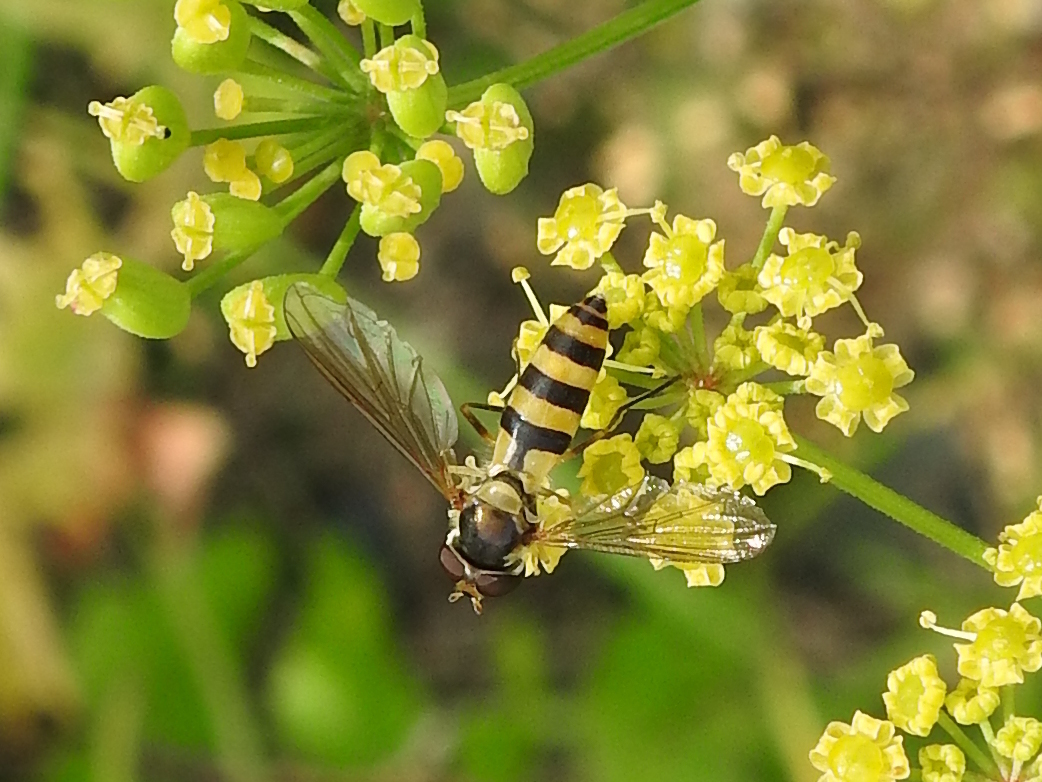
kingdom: Animalia
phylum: Arthropoda
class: Insecta
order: Diptera
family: Syrphidae
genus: Meliscaeva
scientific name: Meliscaeva cinctella
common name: American thintail fly
